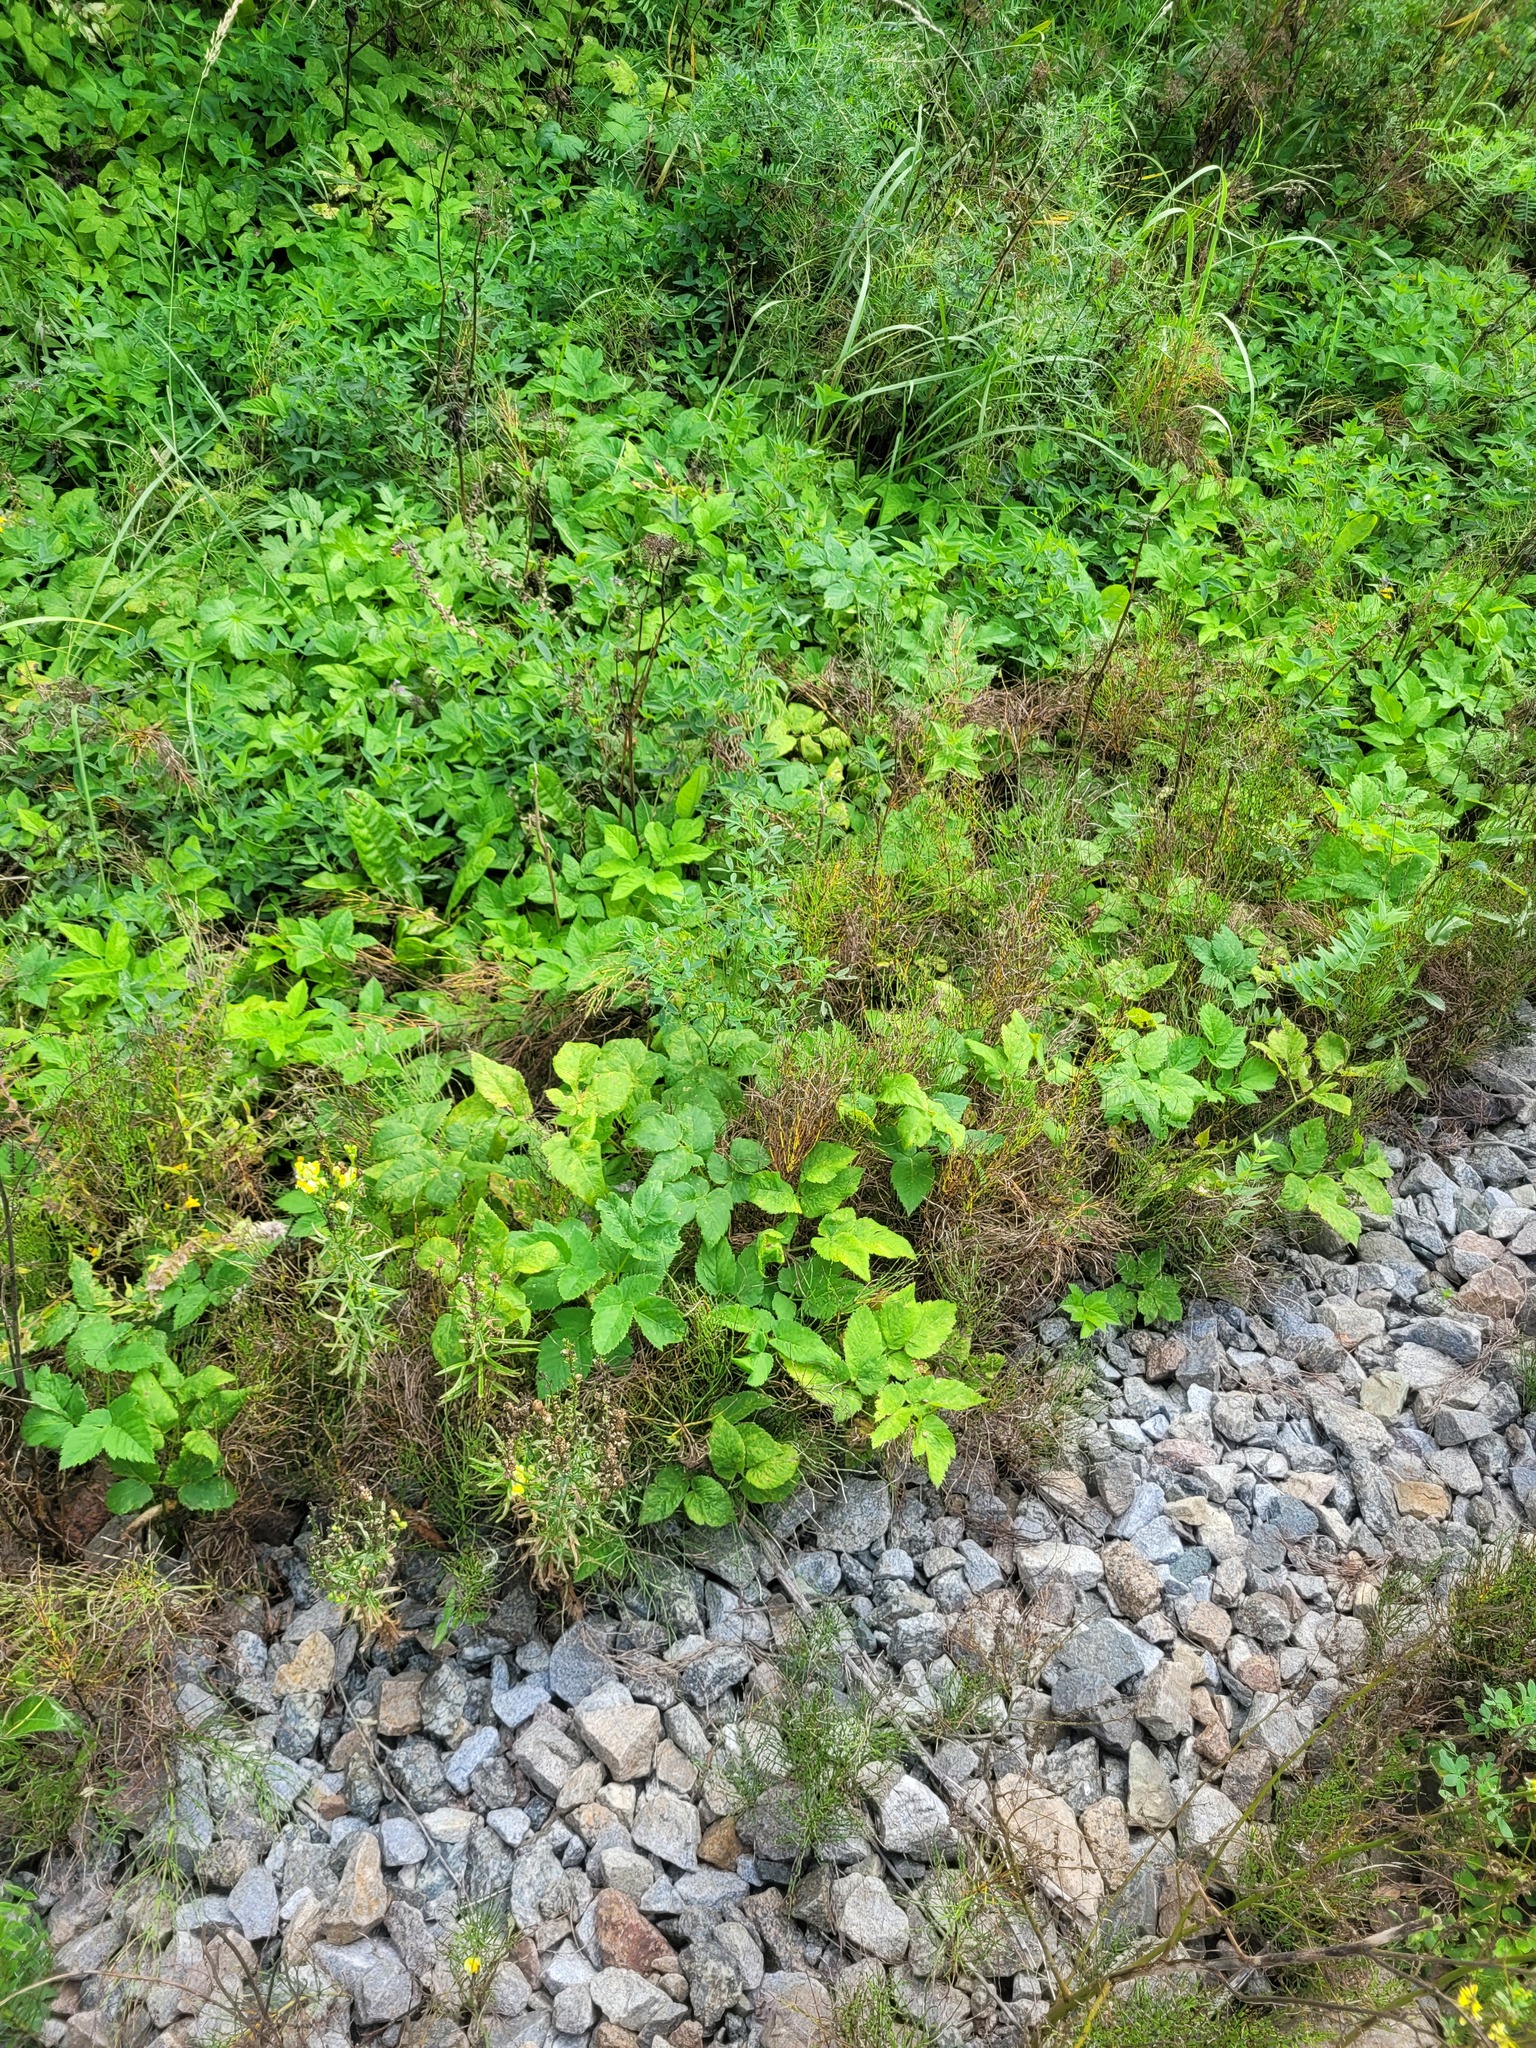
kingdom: Plantae
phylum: Tracheophyta
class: Magnoliopsida
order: Apiales
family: Apiaceae
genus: Aegopodium
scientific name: Aegopodium podagraria
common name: Ground-elder
